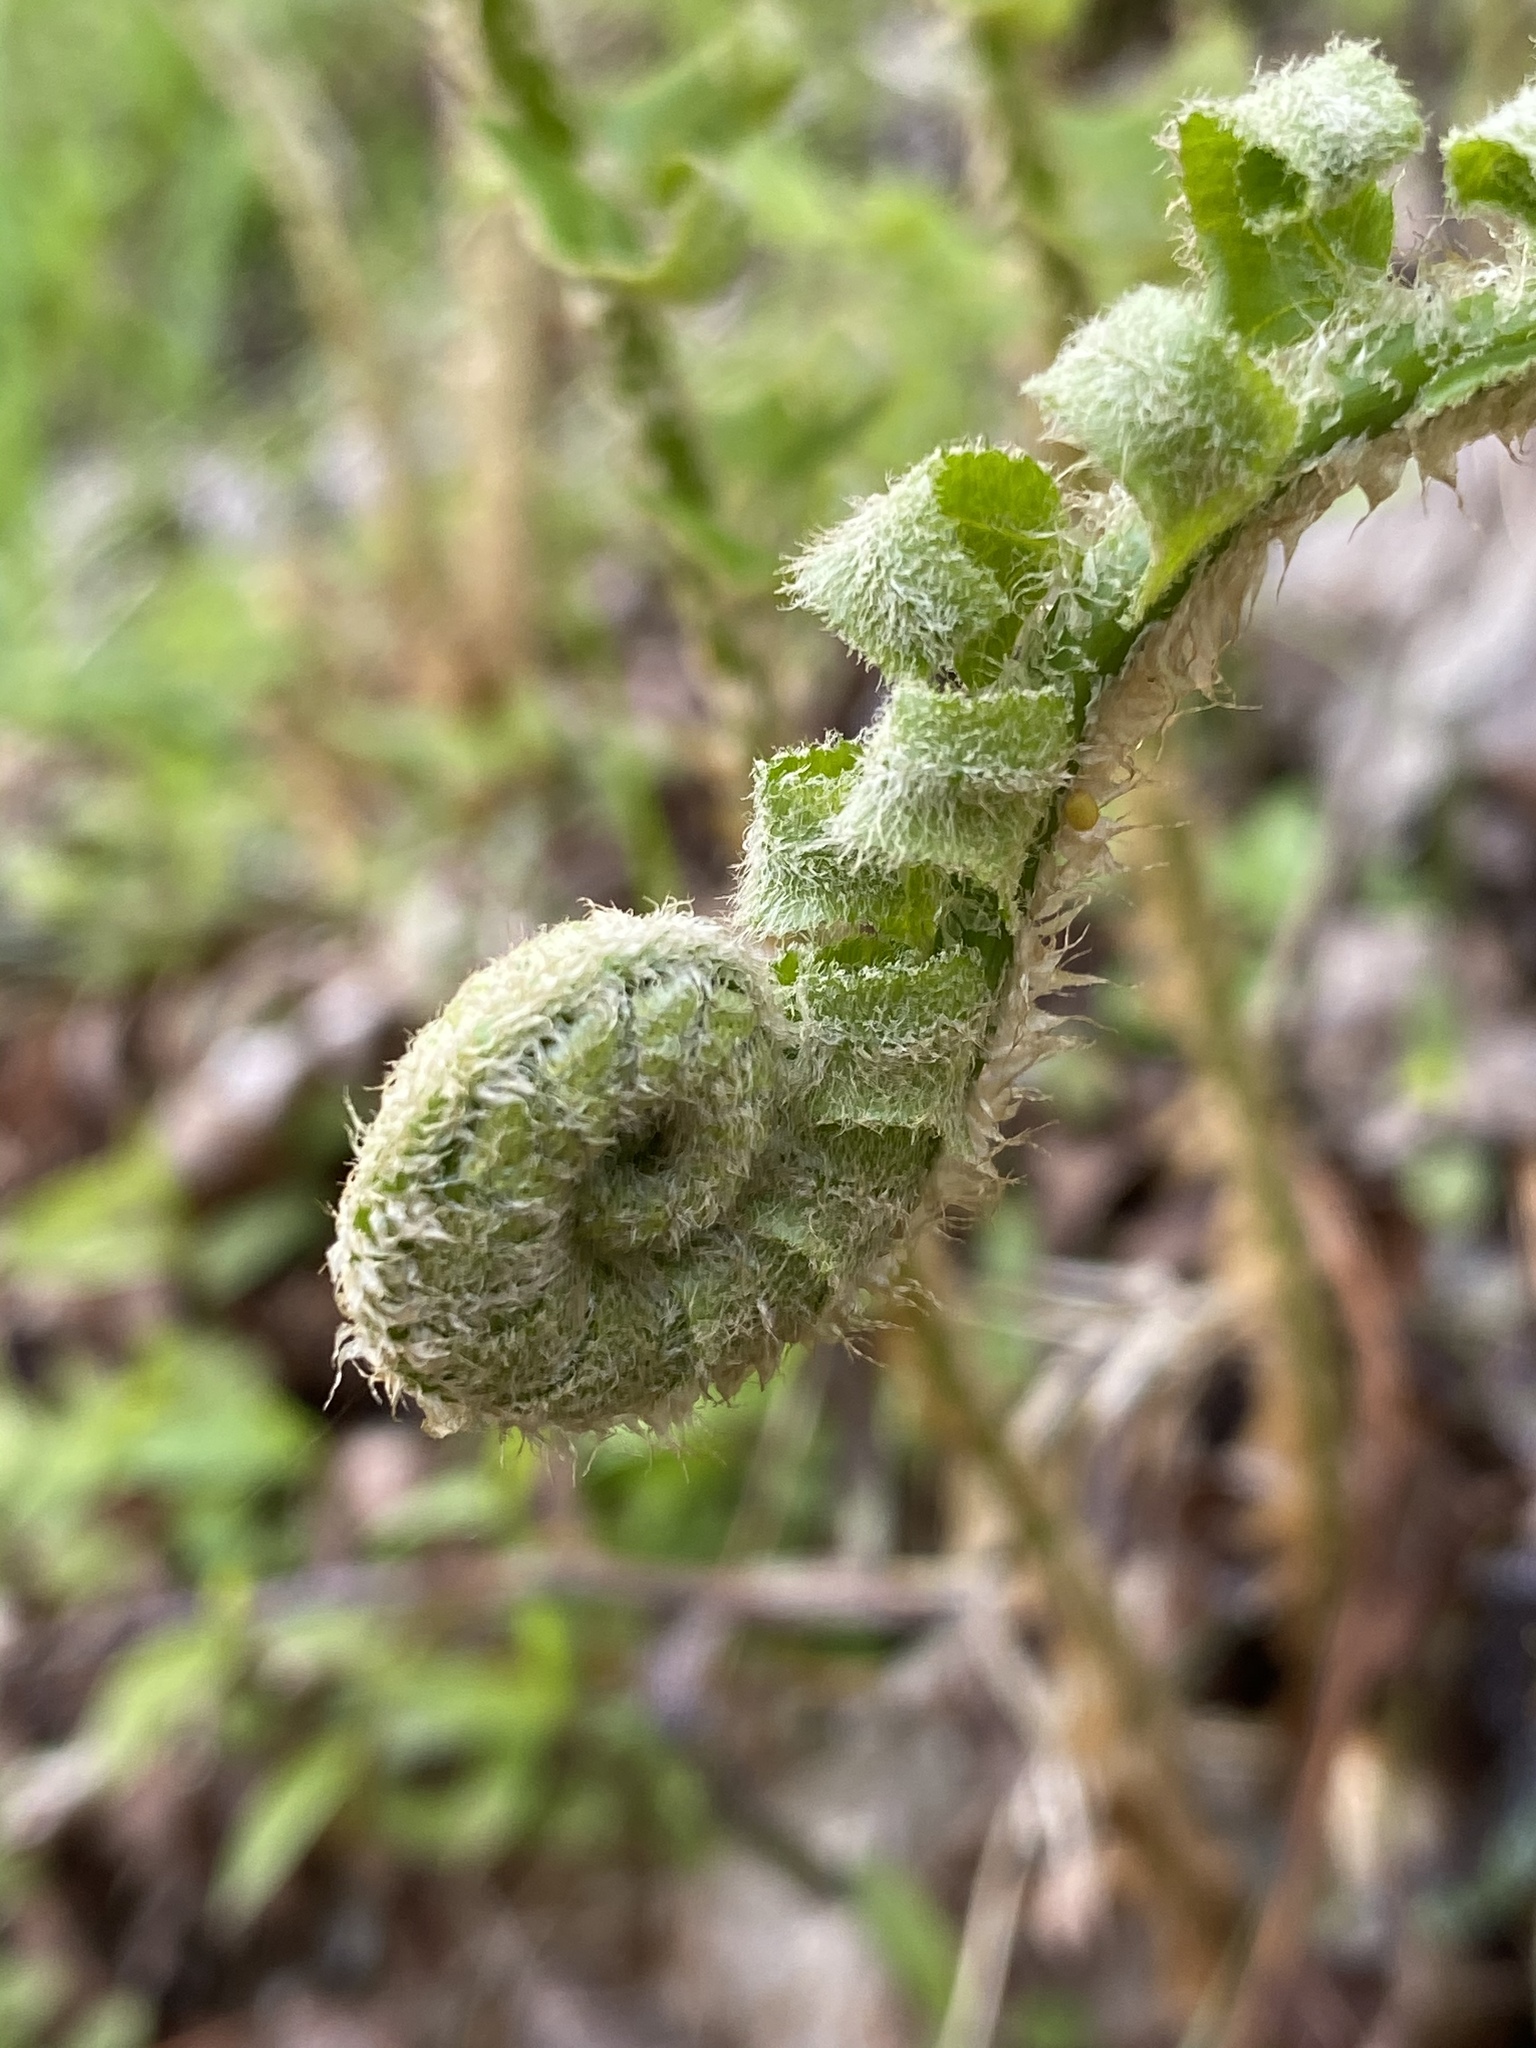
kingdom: Plantae
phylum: Tracheophyta
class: Polypodiopsida
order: Polypodiales
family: Dryopteridaceae
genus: Polystichum
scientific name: Polystichum acrostichoides
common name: Christmas fern
